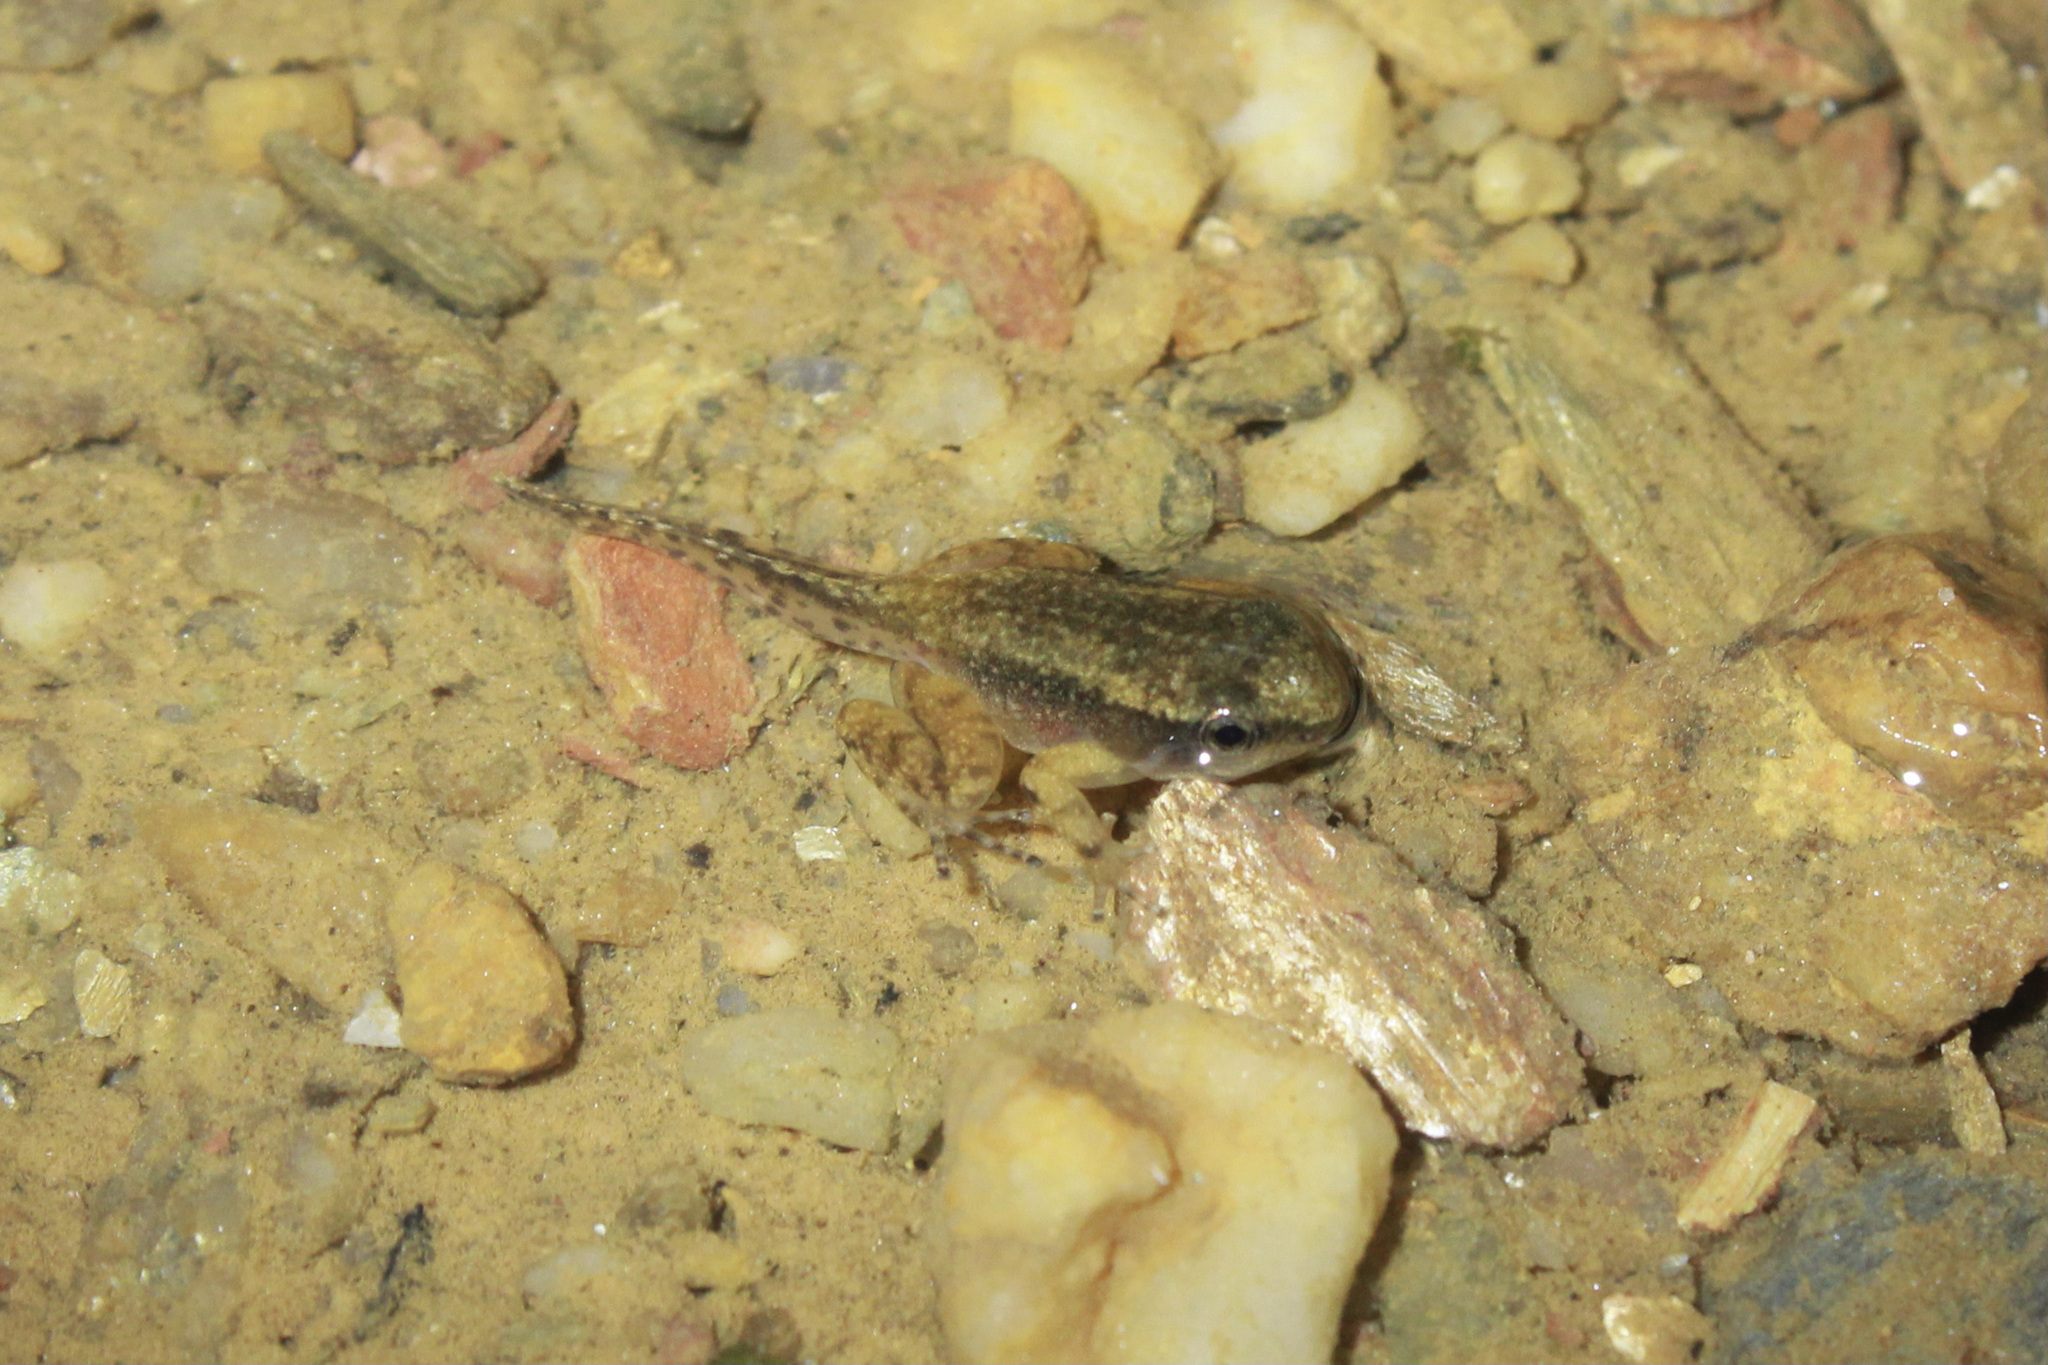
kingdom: Animalia
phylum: Chordata
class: Amphibia
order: Anura
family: Aromobatidae
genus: Mannophryne
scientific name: Mannophryne trinitatis
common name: Trinidad poison frog
